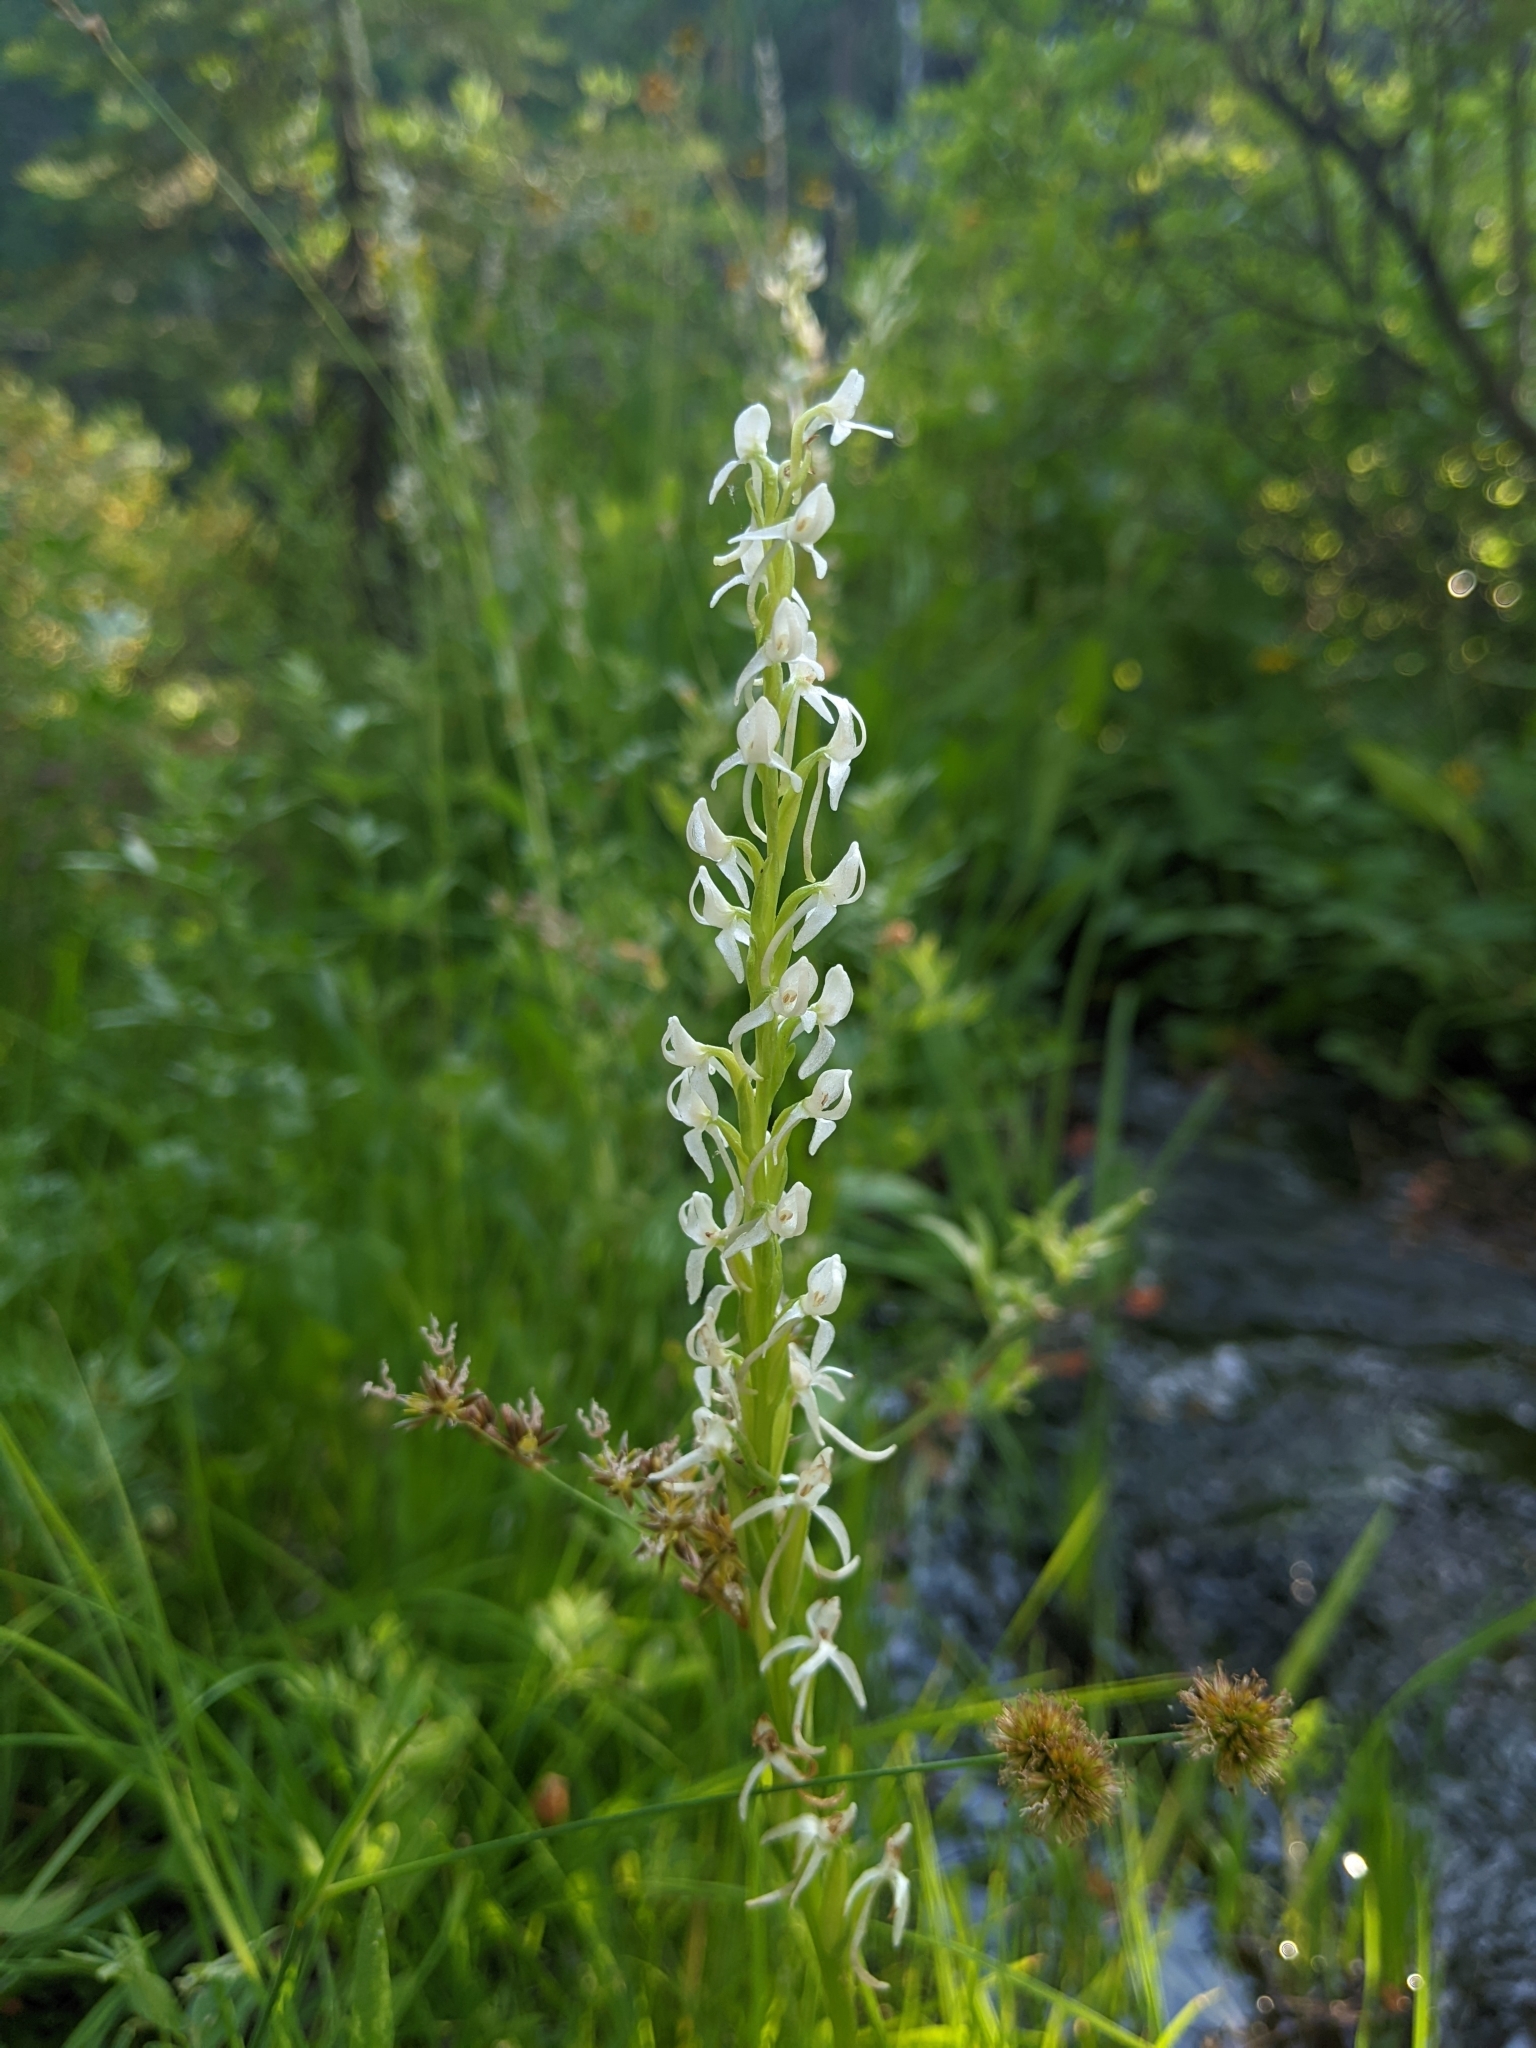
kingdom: Plantae
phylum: Tracheophyta
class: Liliopsida
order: Asparagales
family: Orchidaceae
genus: Platanthera
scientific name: Platanthera dilatata
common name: Bog candles
